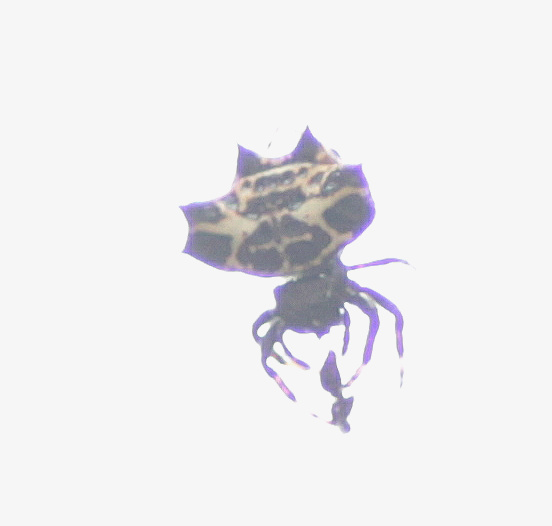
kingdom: Animalia
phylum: Arthropoda
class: Arachnida
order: Araneae
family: Araneidae
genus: Gasteracantha
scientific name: Gasteracantha cancriformis
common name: Orb weavers
